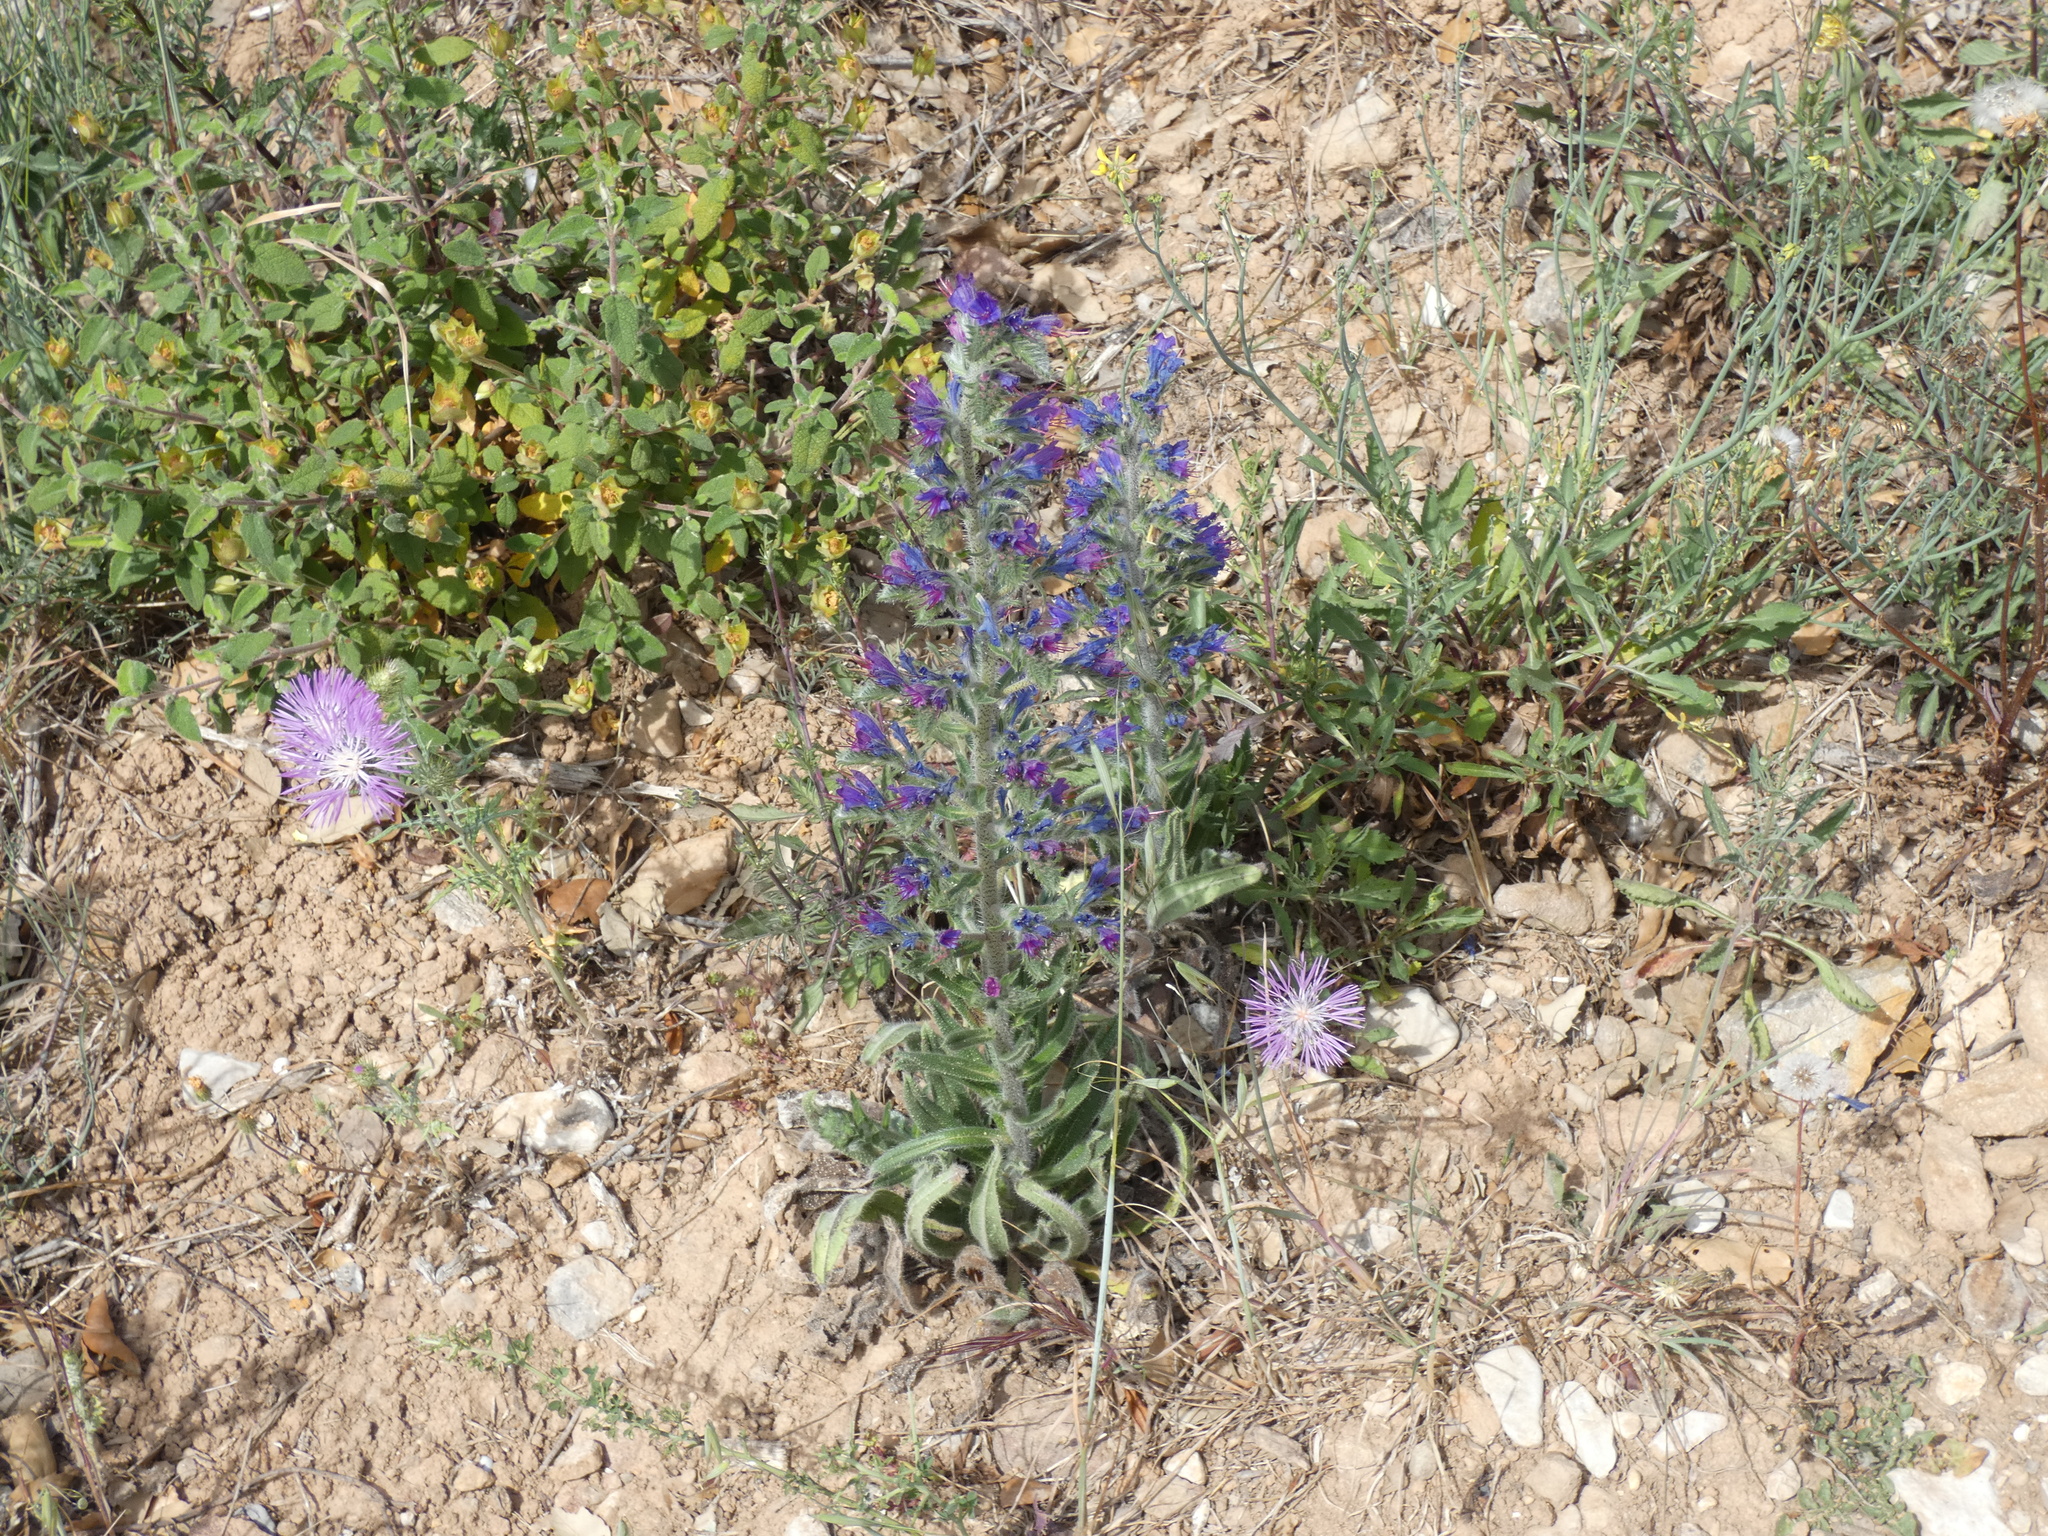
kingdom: Plantae
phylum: Tracheophyta
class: Magnoliopsida
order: Boraginales
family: Boraginaceae
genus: Echium
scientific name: Echium vulgare
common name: Common viper's bugloss
